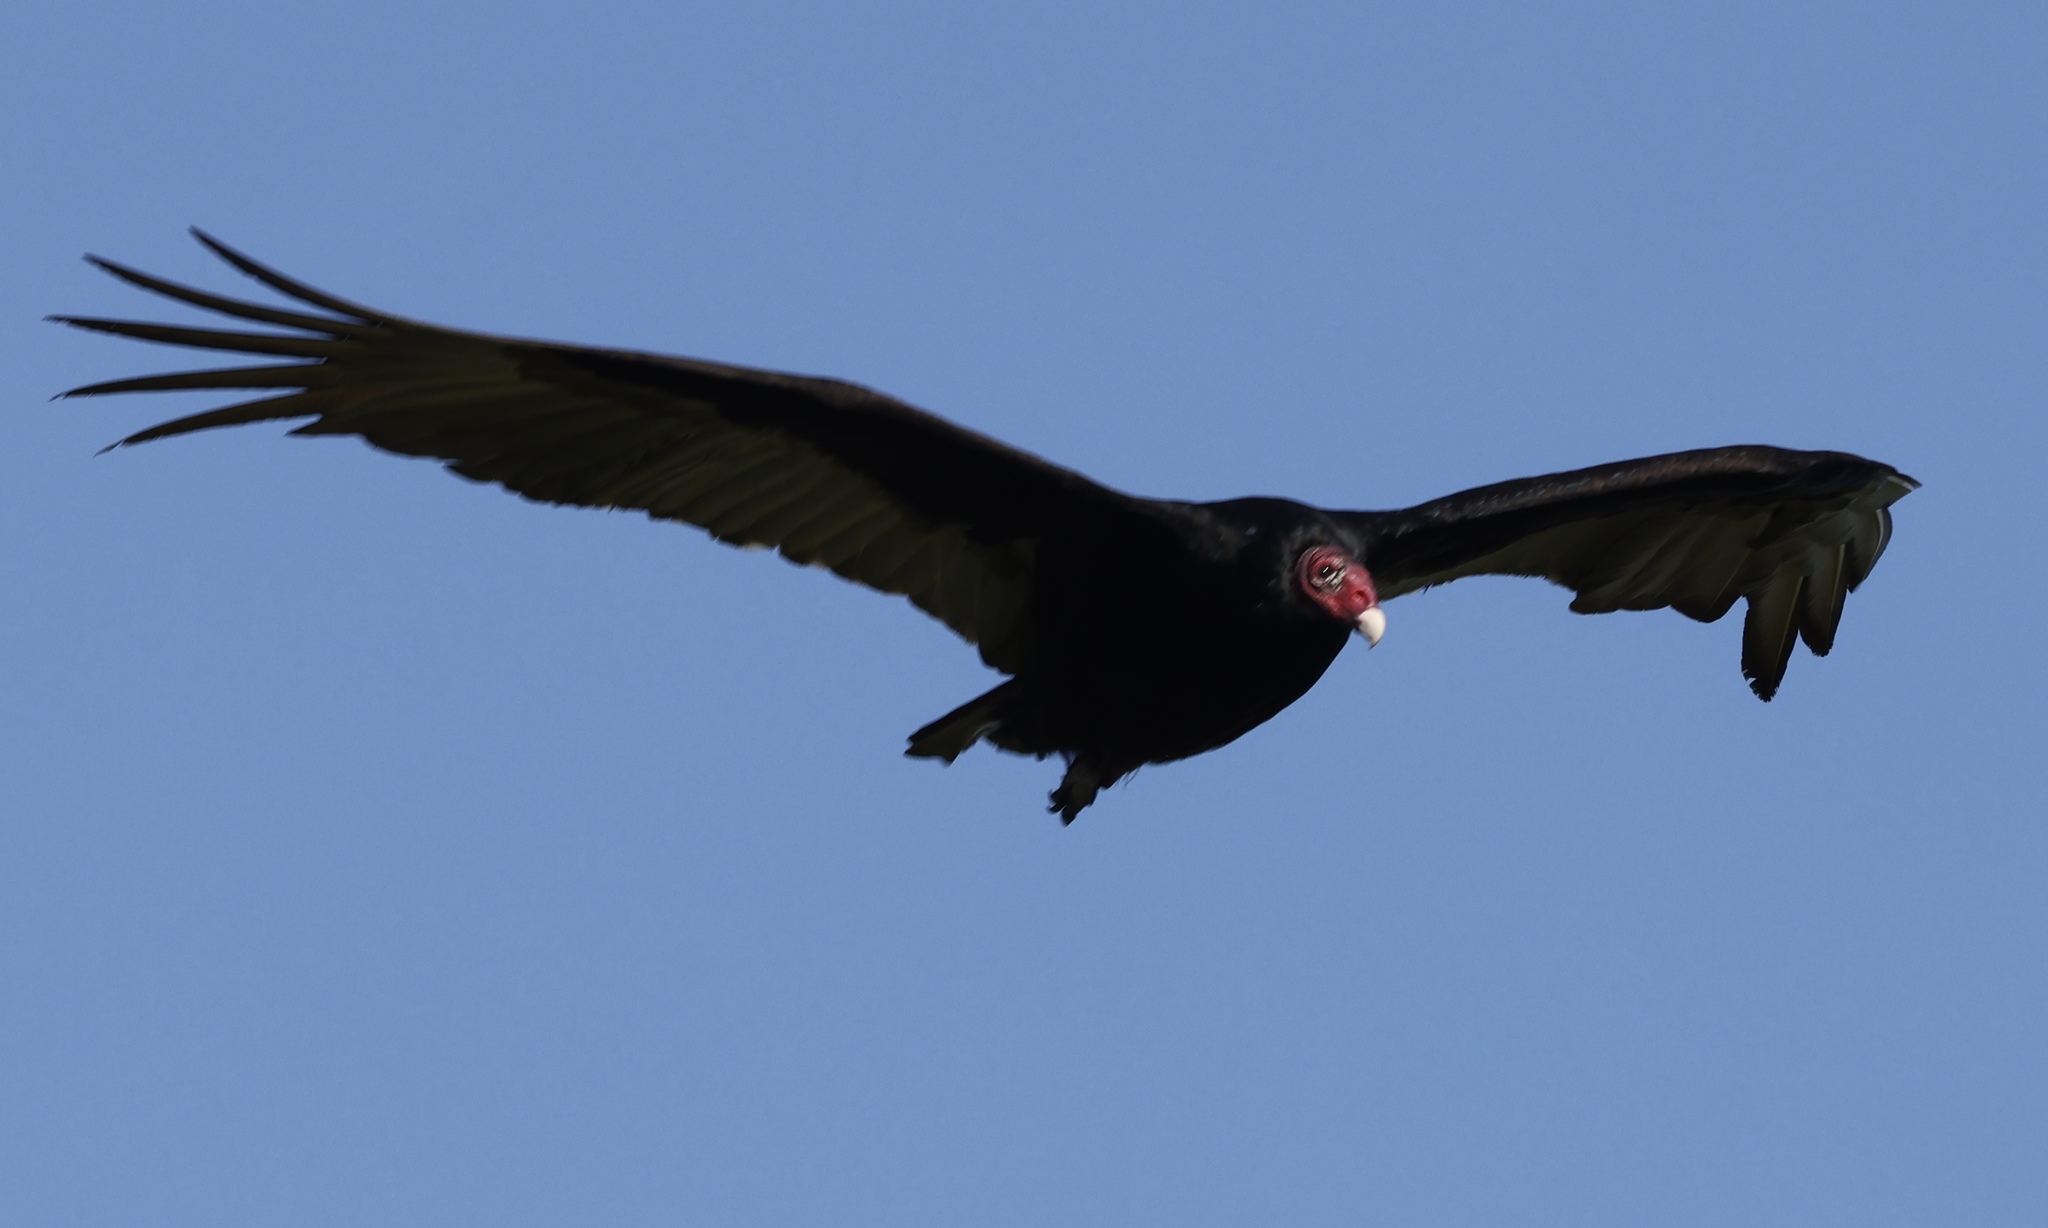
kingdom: Animalia
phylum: Chordata
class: Aves
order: Accipitriformes
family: Cathartidae
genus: Cathartes
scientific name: Cathartes aura
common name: Turkey vulture
